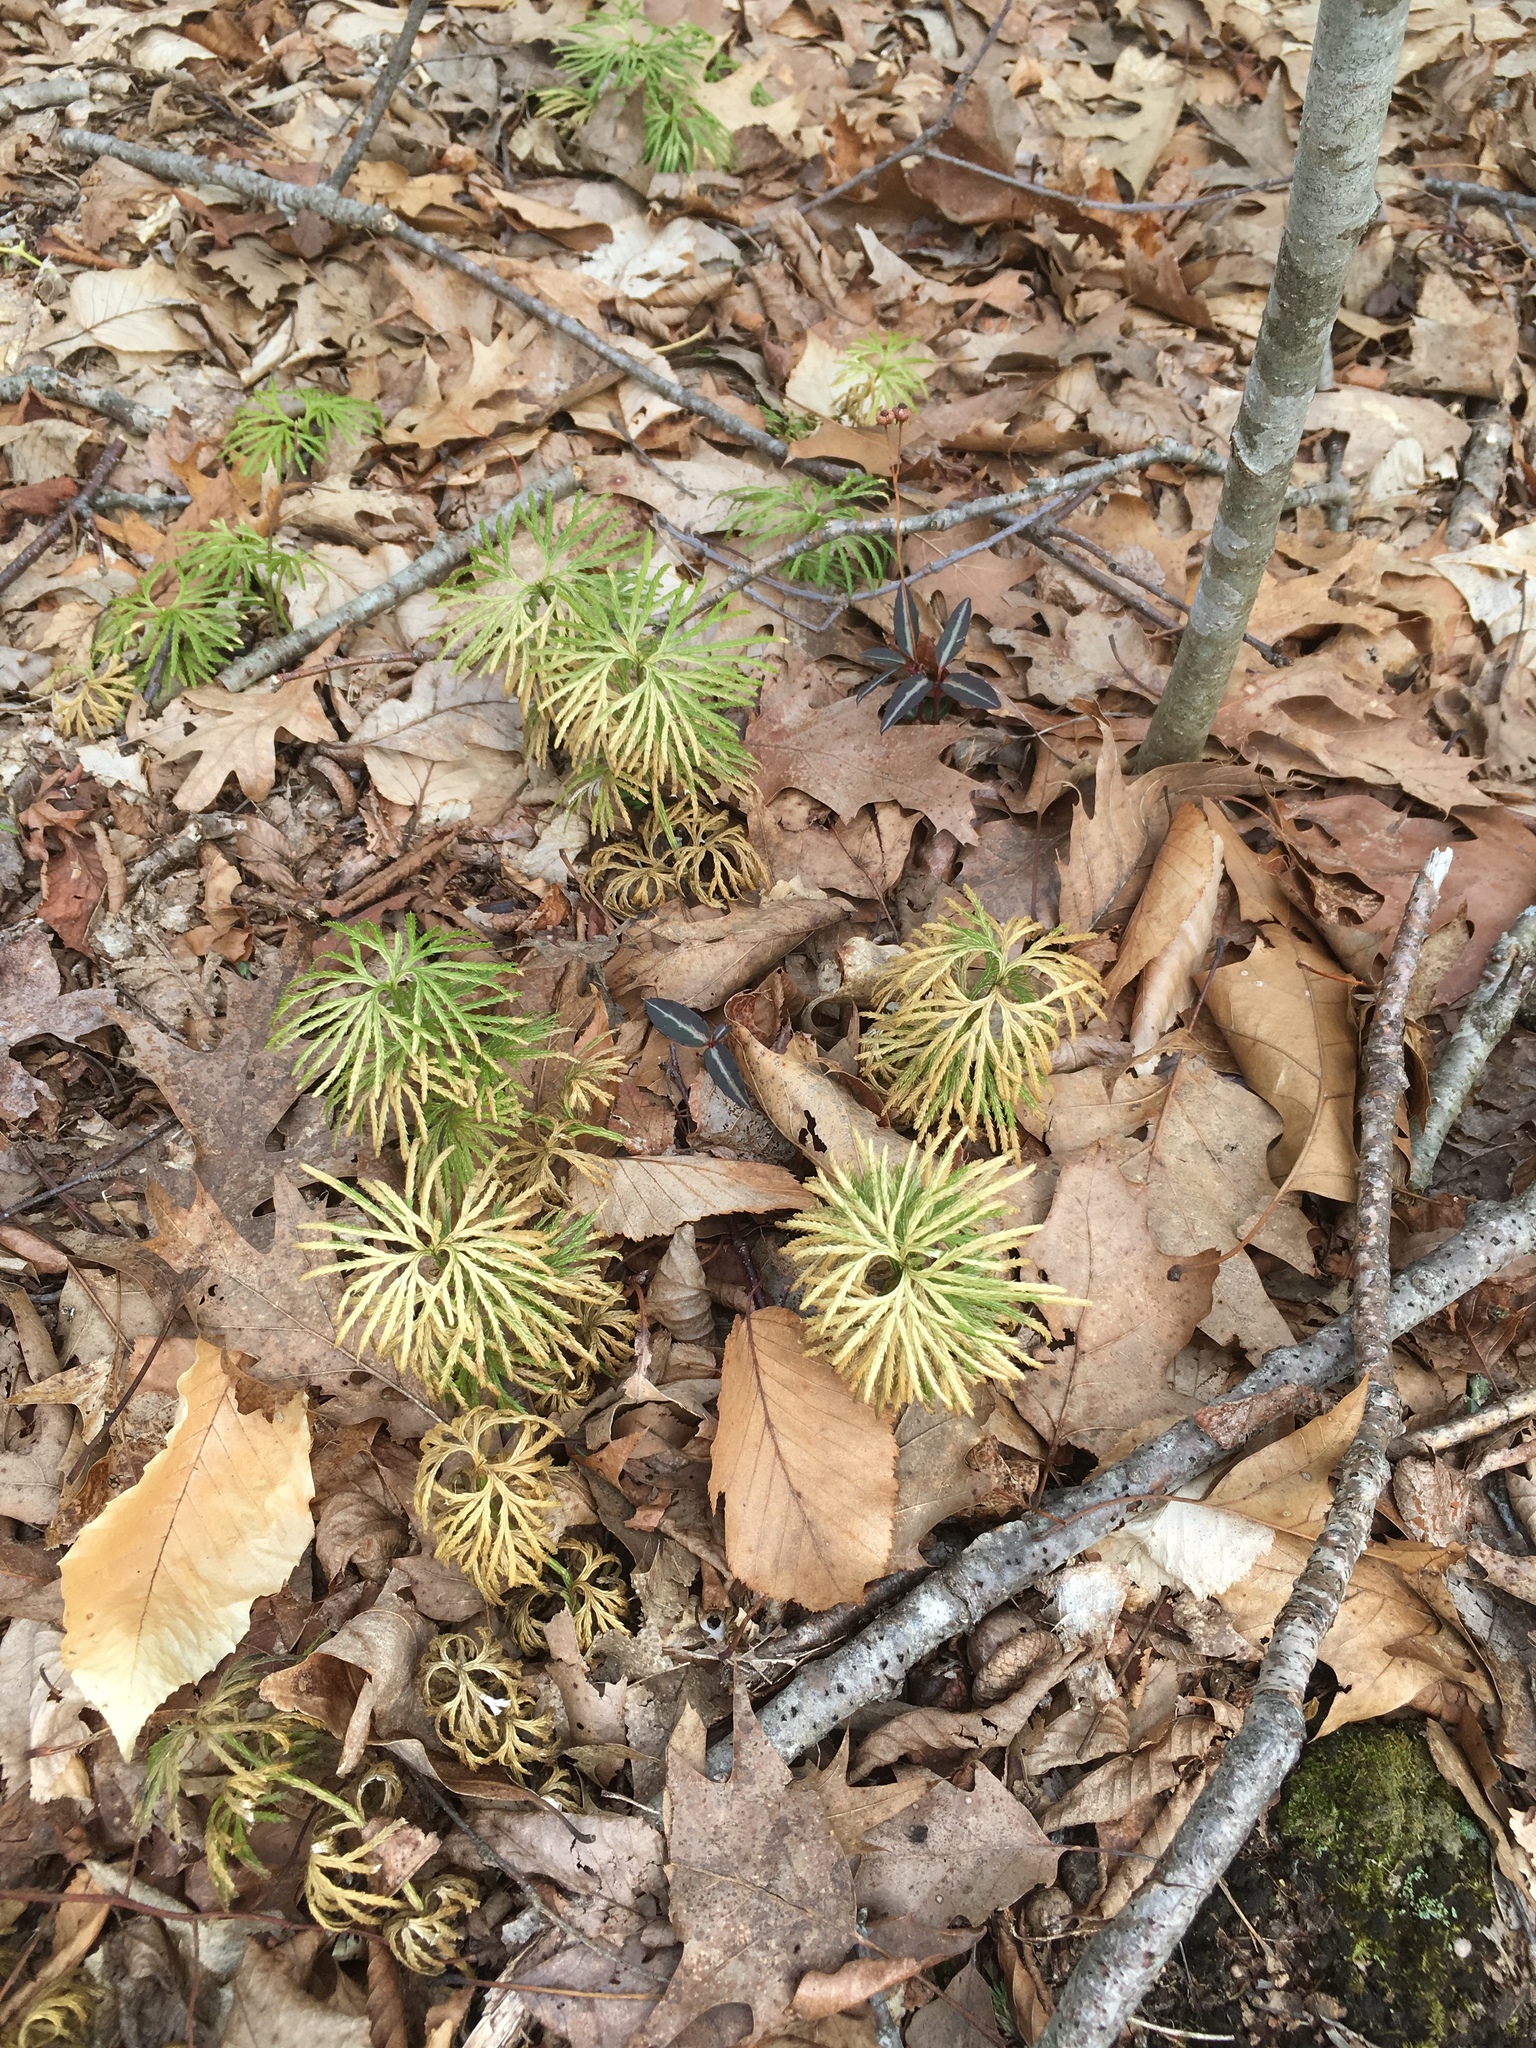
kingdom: Plantae
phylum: Tracheophyta
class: Lycopodiopsida
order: Lycopodiales
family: Lycopodiaceae
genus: Diphasiastrum
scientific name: Diphasiastrum digitatum
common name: Southern running-pine
